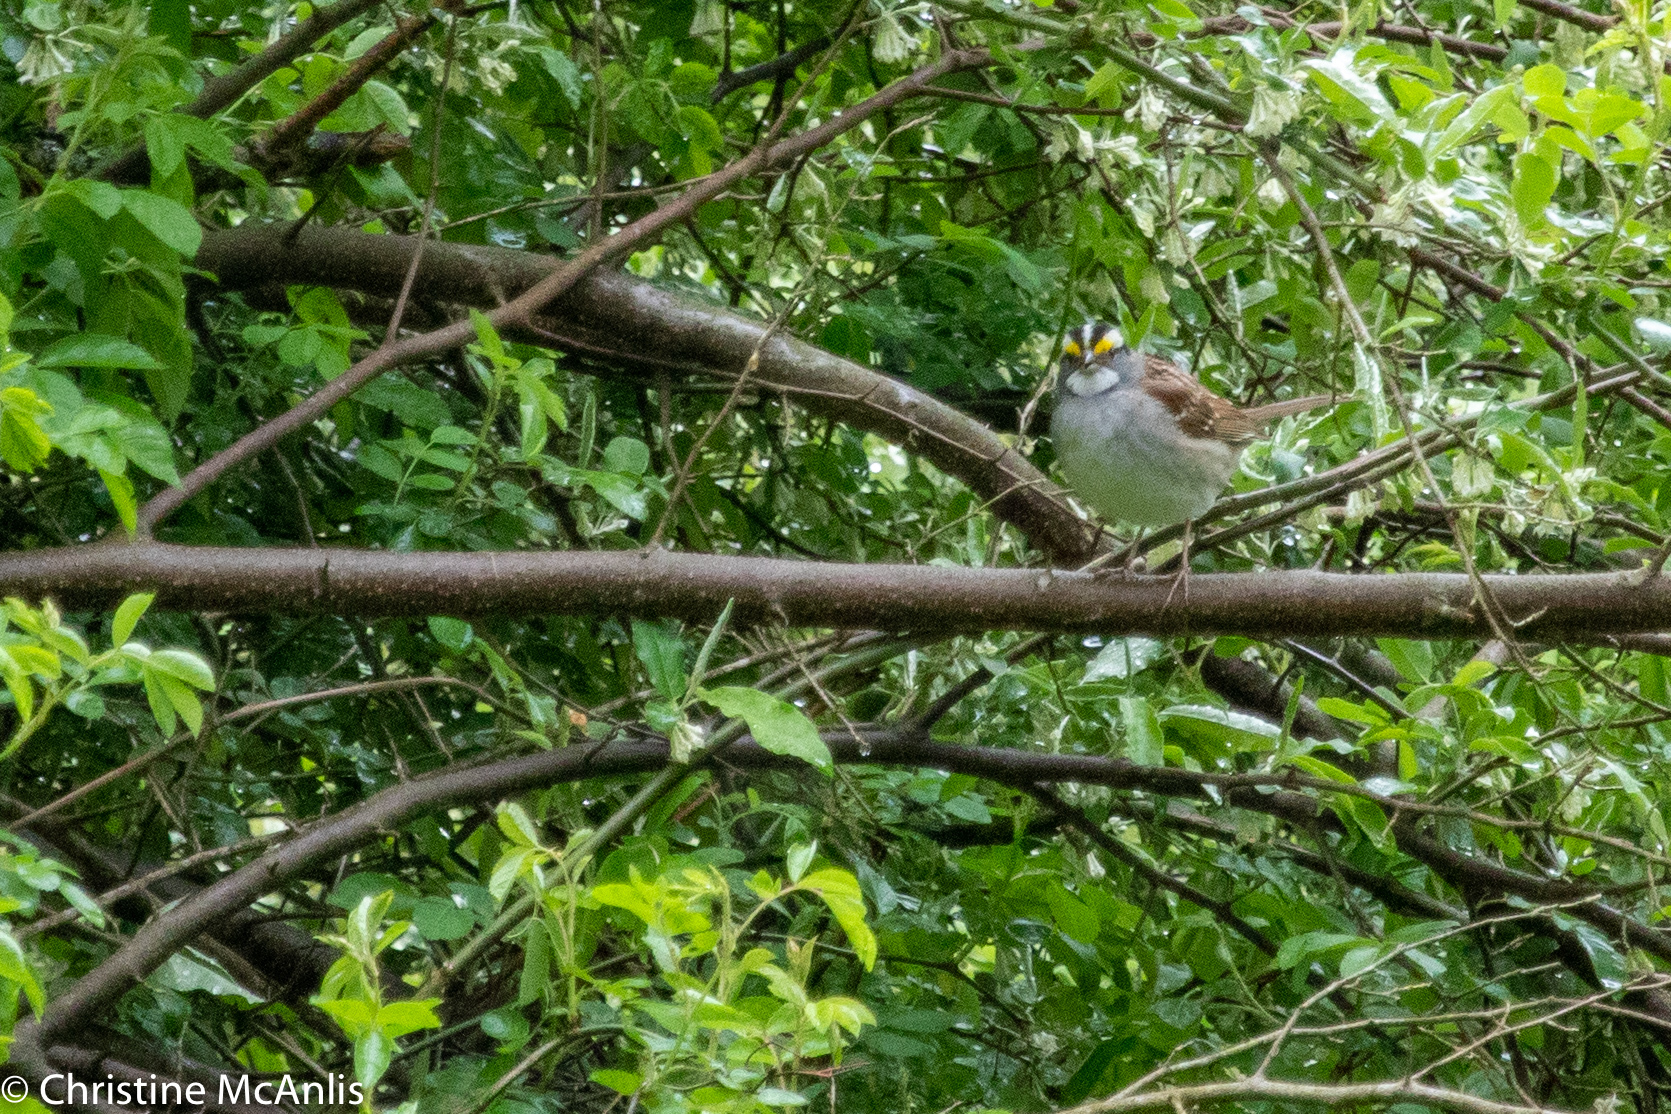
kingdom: Animalia
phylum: Chordata
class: Aves
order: Passeriformes
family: Passerellidae
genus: Zonotrichia
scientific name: Zonotrichia albicollis
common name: White-throated sparrow
